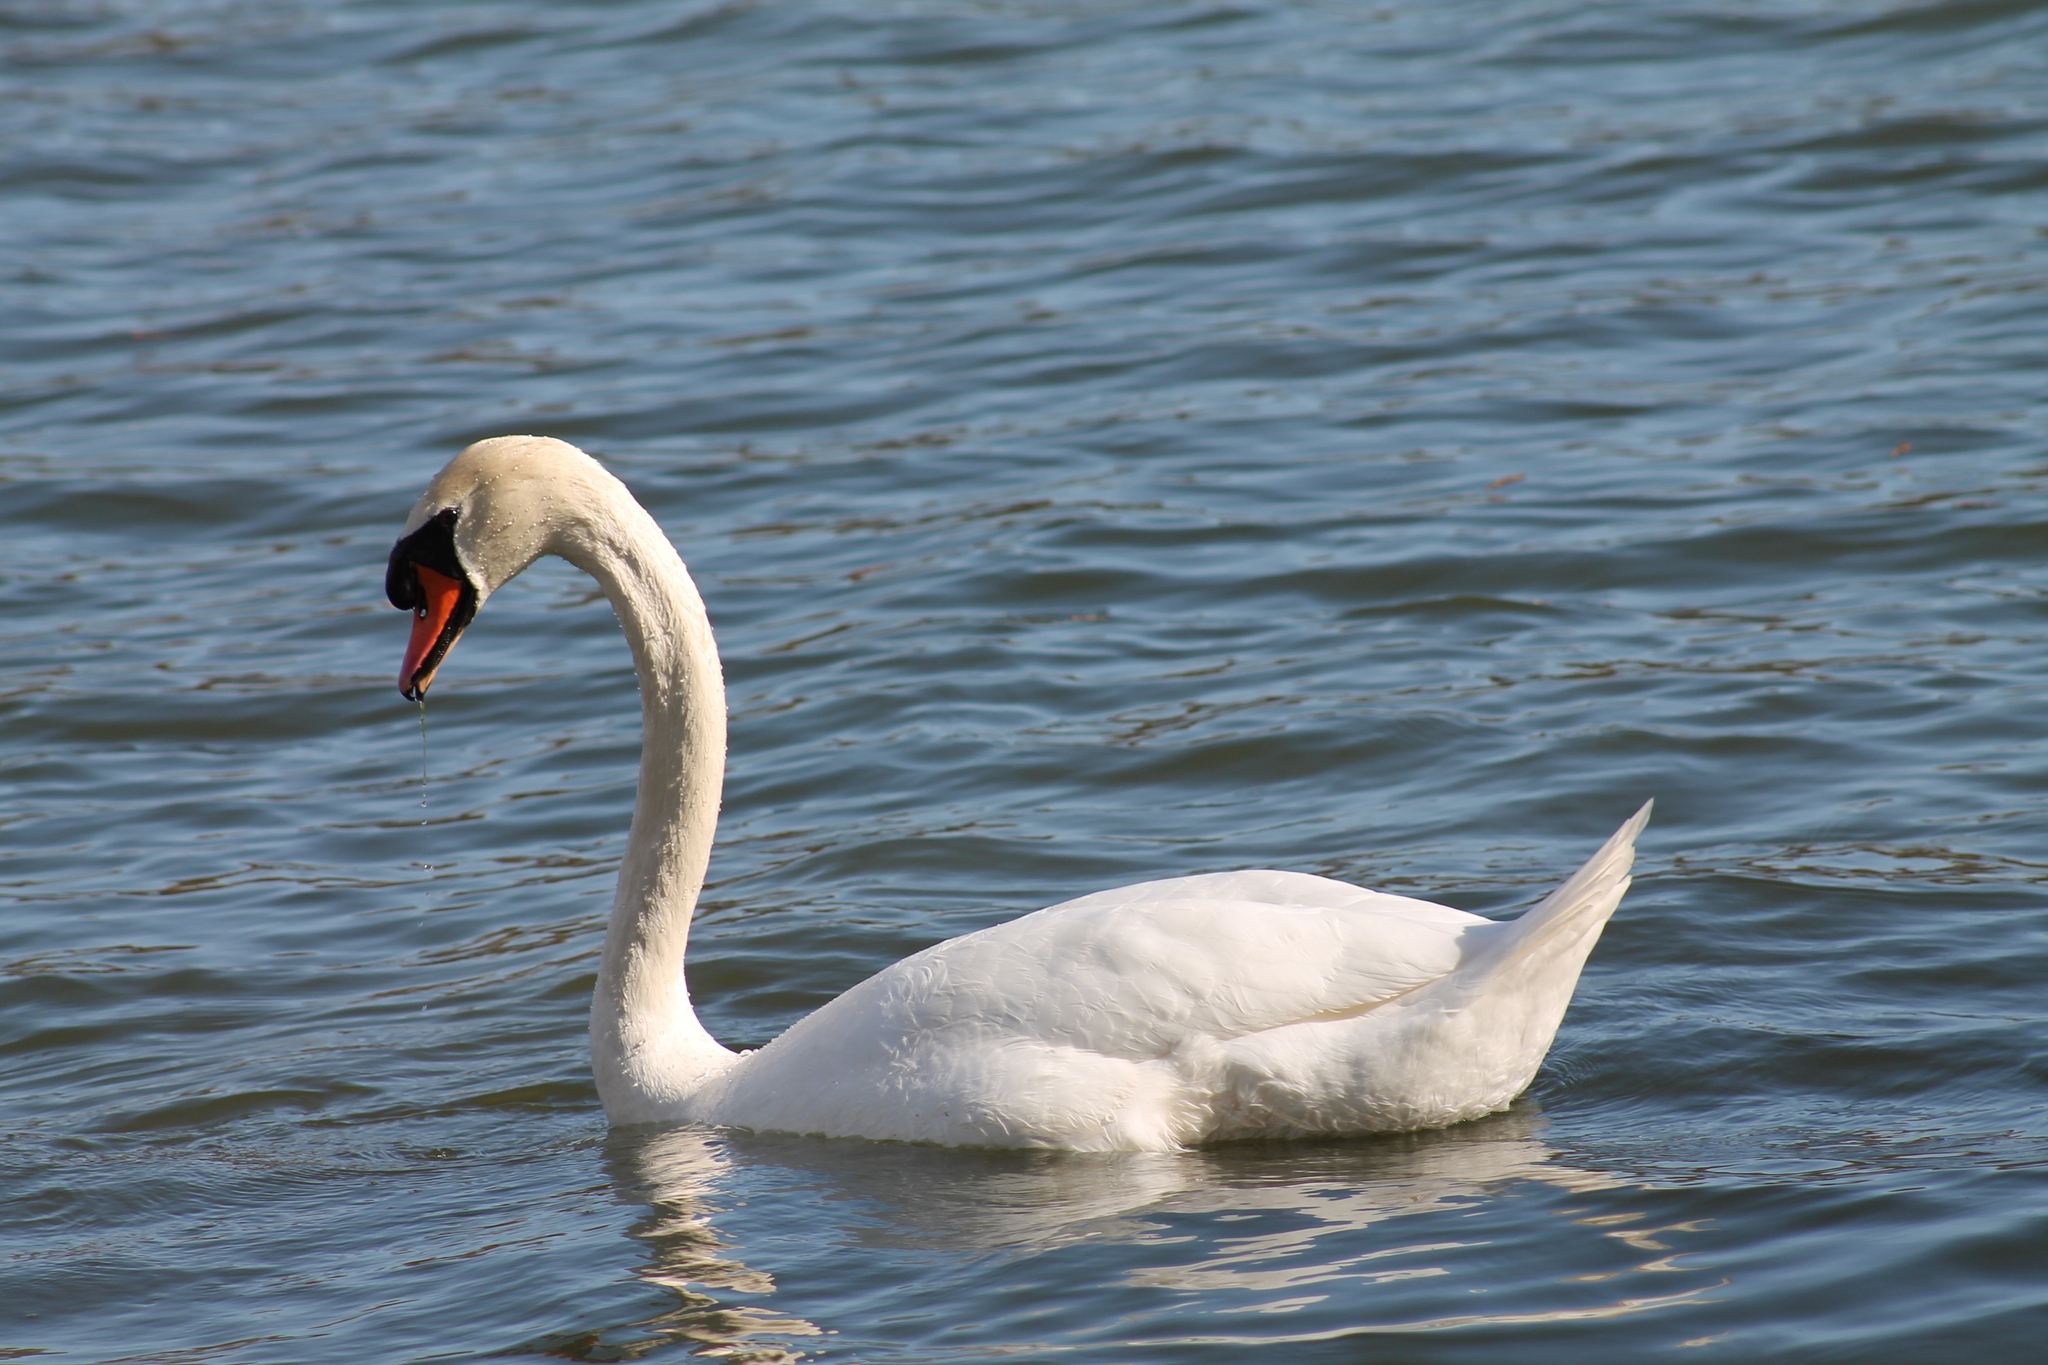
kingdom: Animalia
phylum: Chordata
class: Aves
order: Anseriformes
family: Anatidae
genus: Cygnus
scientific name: Cygnus olor
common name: Mute swan
